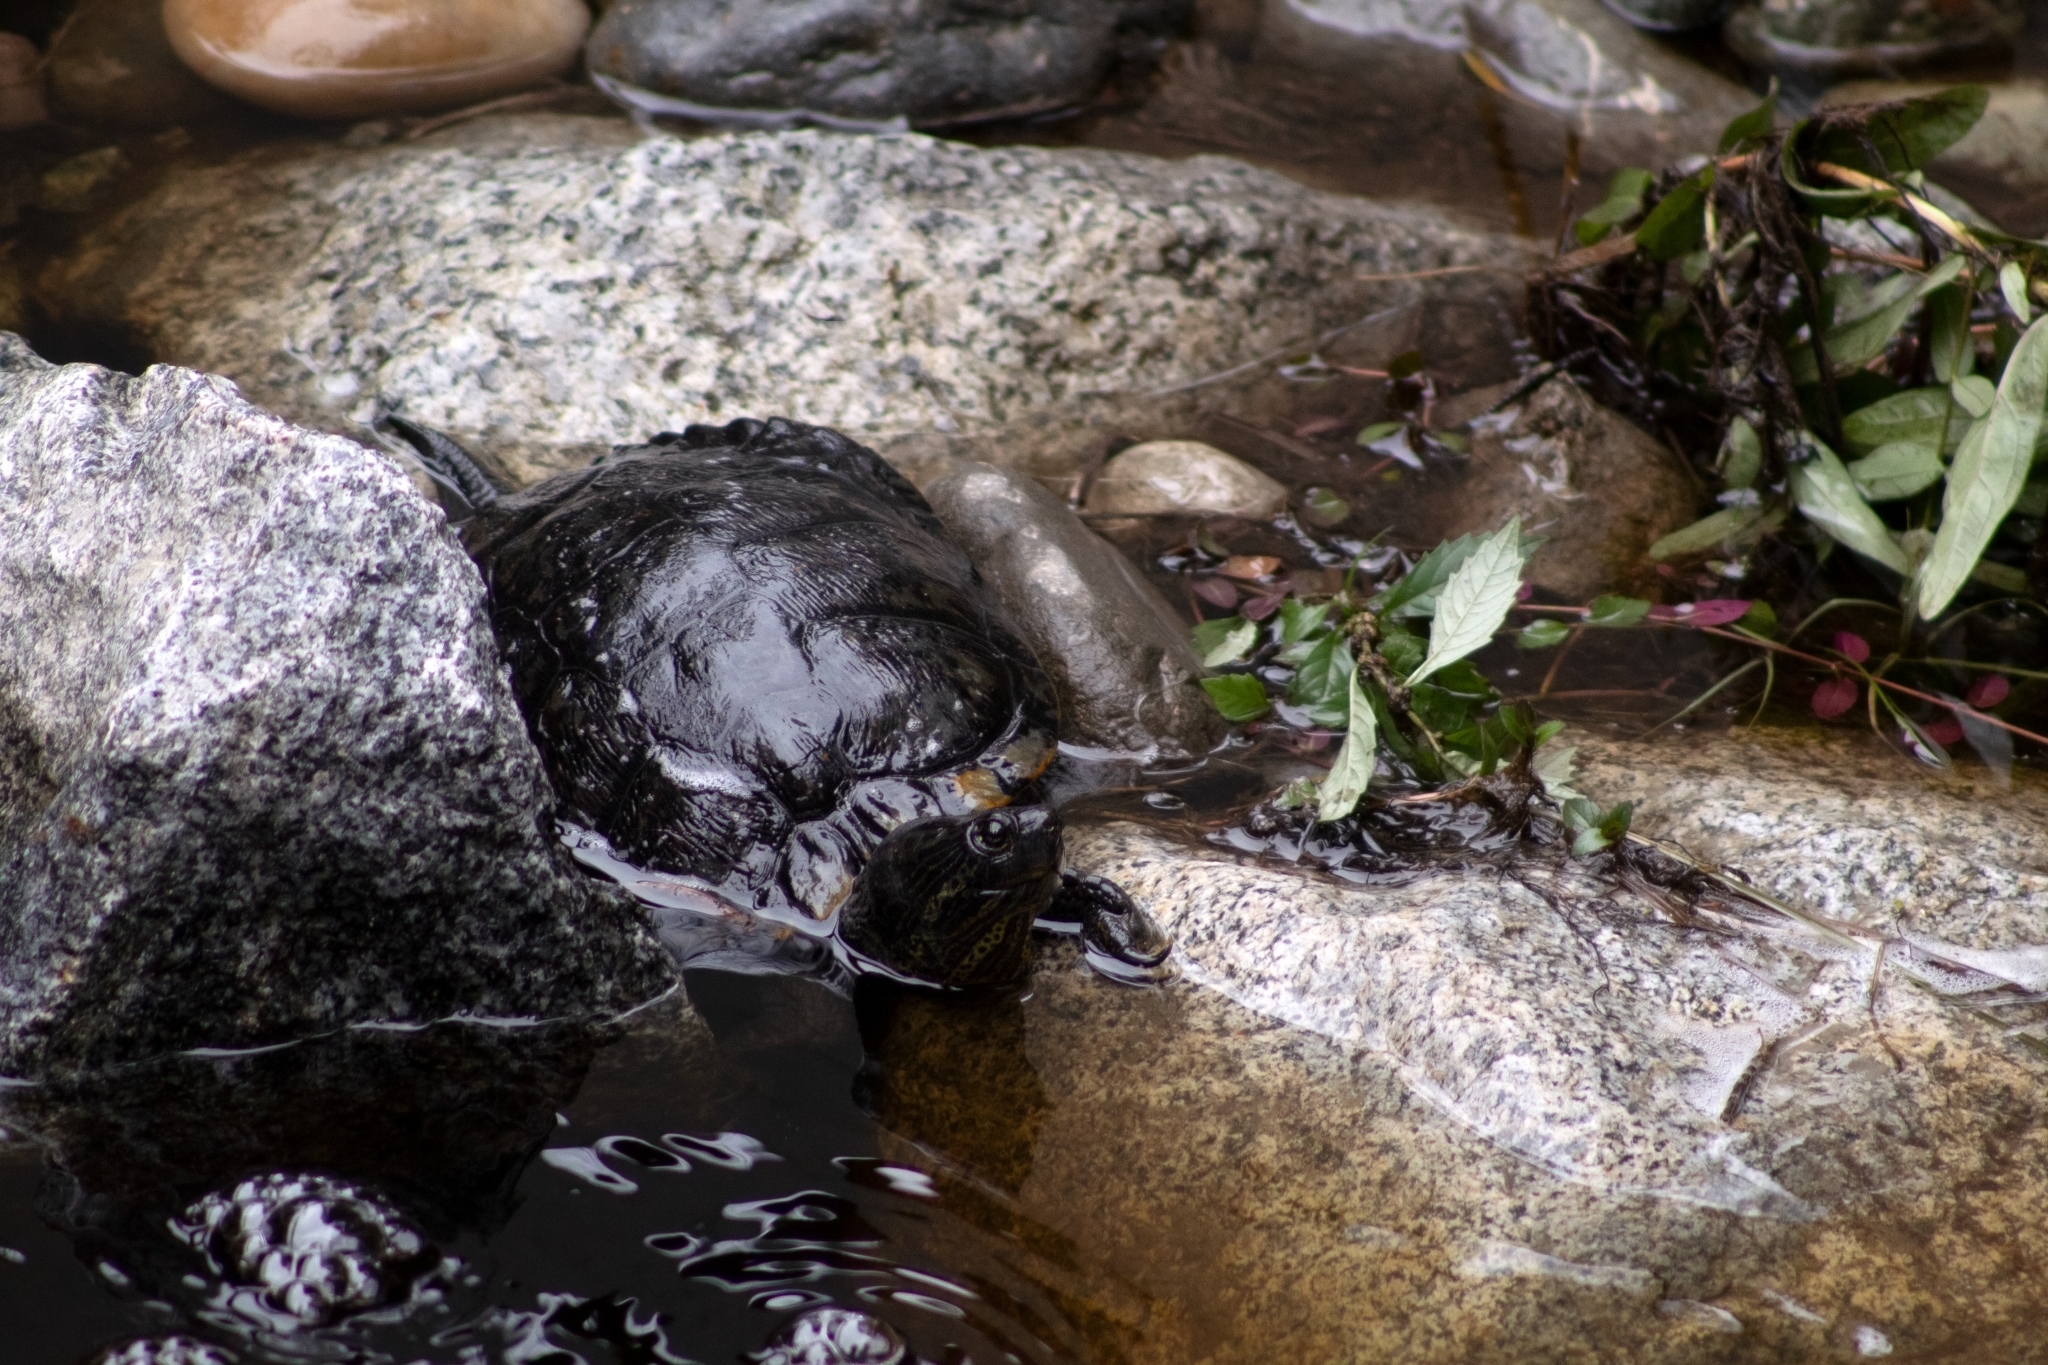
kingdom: Animalia
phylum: Chordata
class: Testudines
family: Emydidae
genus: Trachemys
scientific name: Trachemys scripta
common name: Slider
